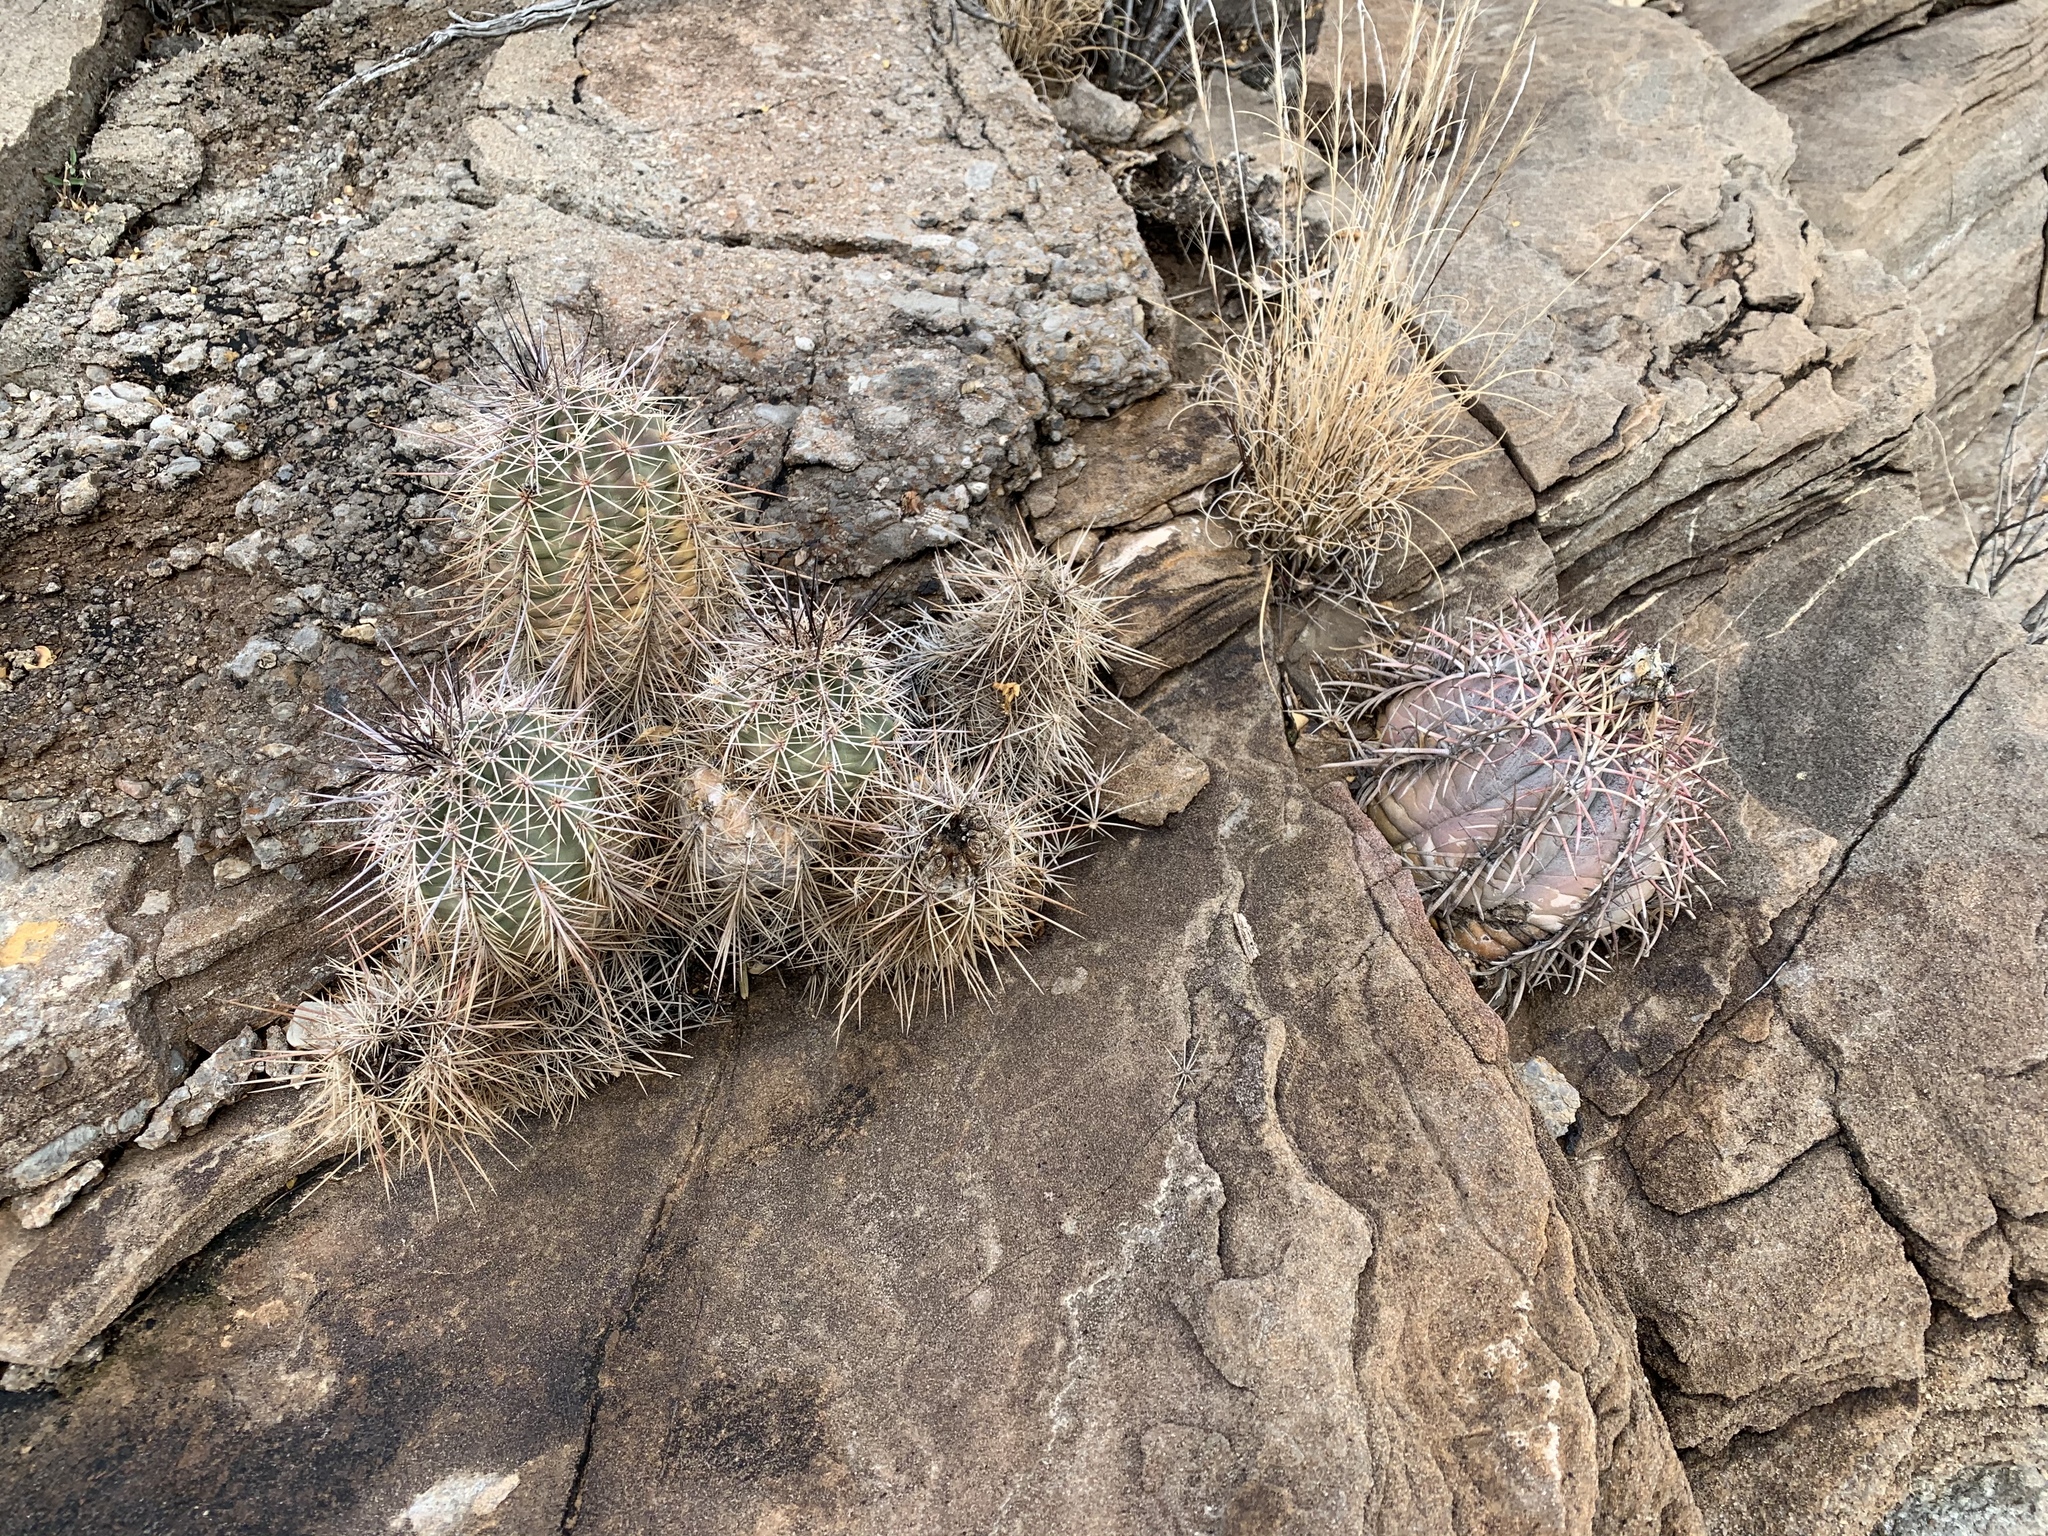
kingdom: Plantae
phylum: Tracheophyta
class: Magnoliopsida
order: Caryophyllales
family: Cactaceae
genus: Echinocereus
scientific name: Echinocereus coccineus
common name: Scarlet hedgehog cactus
